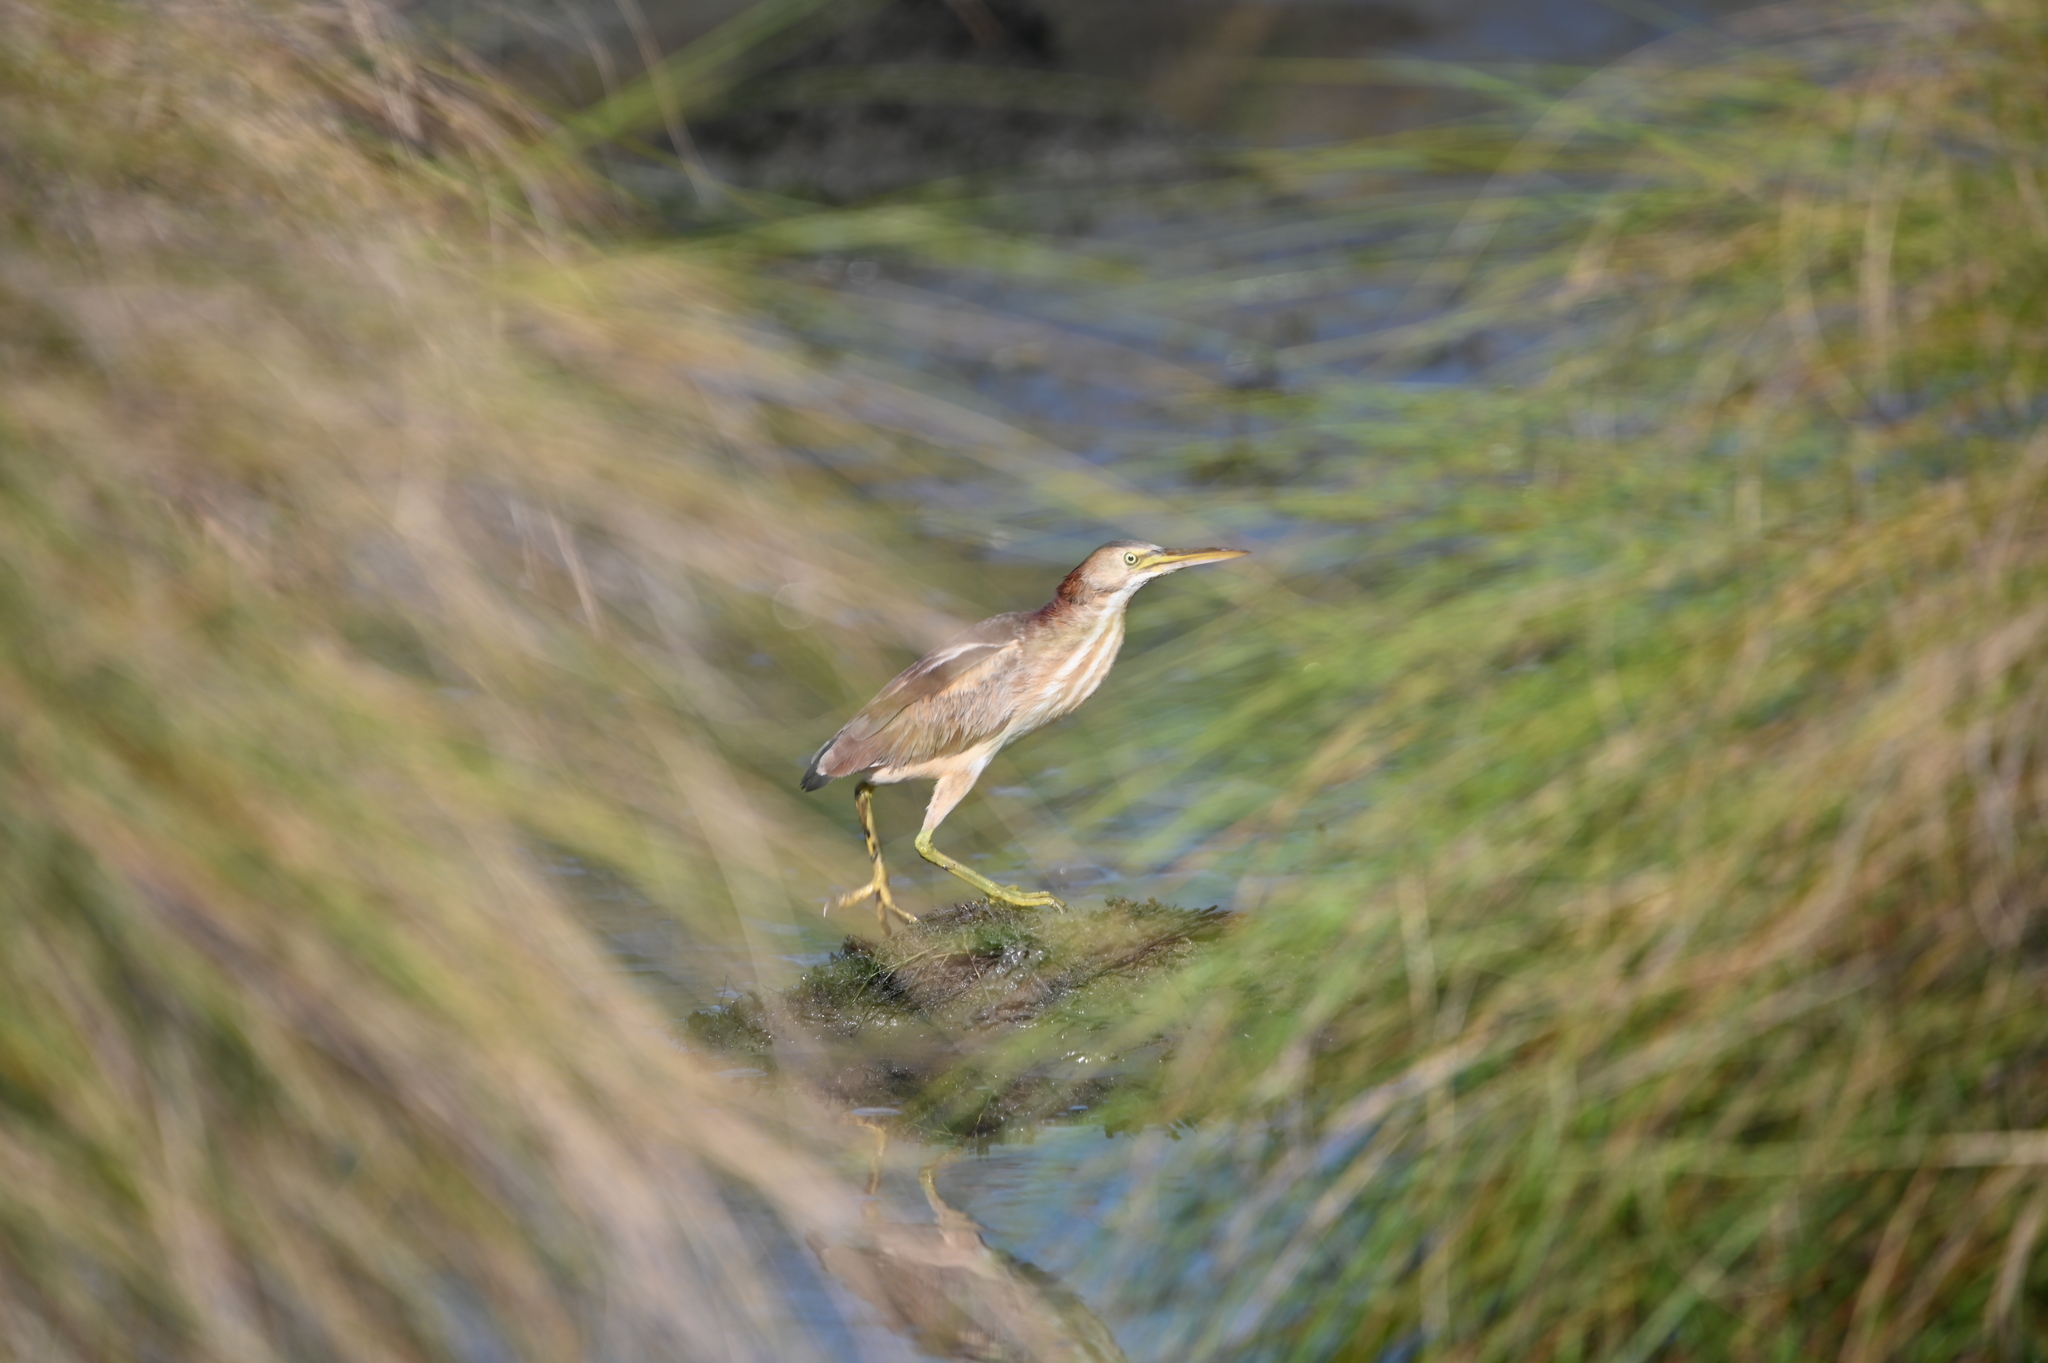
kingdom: Animalia
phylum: Chordata
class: Aves
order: Pelecaniformes
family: Ardeidae
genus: Ixobrychus
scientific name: Ixobrychus exilis
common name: Least bittern
